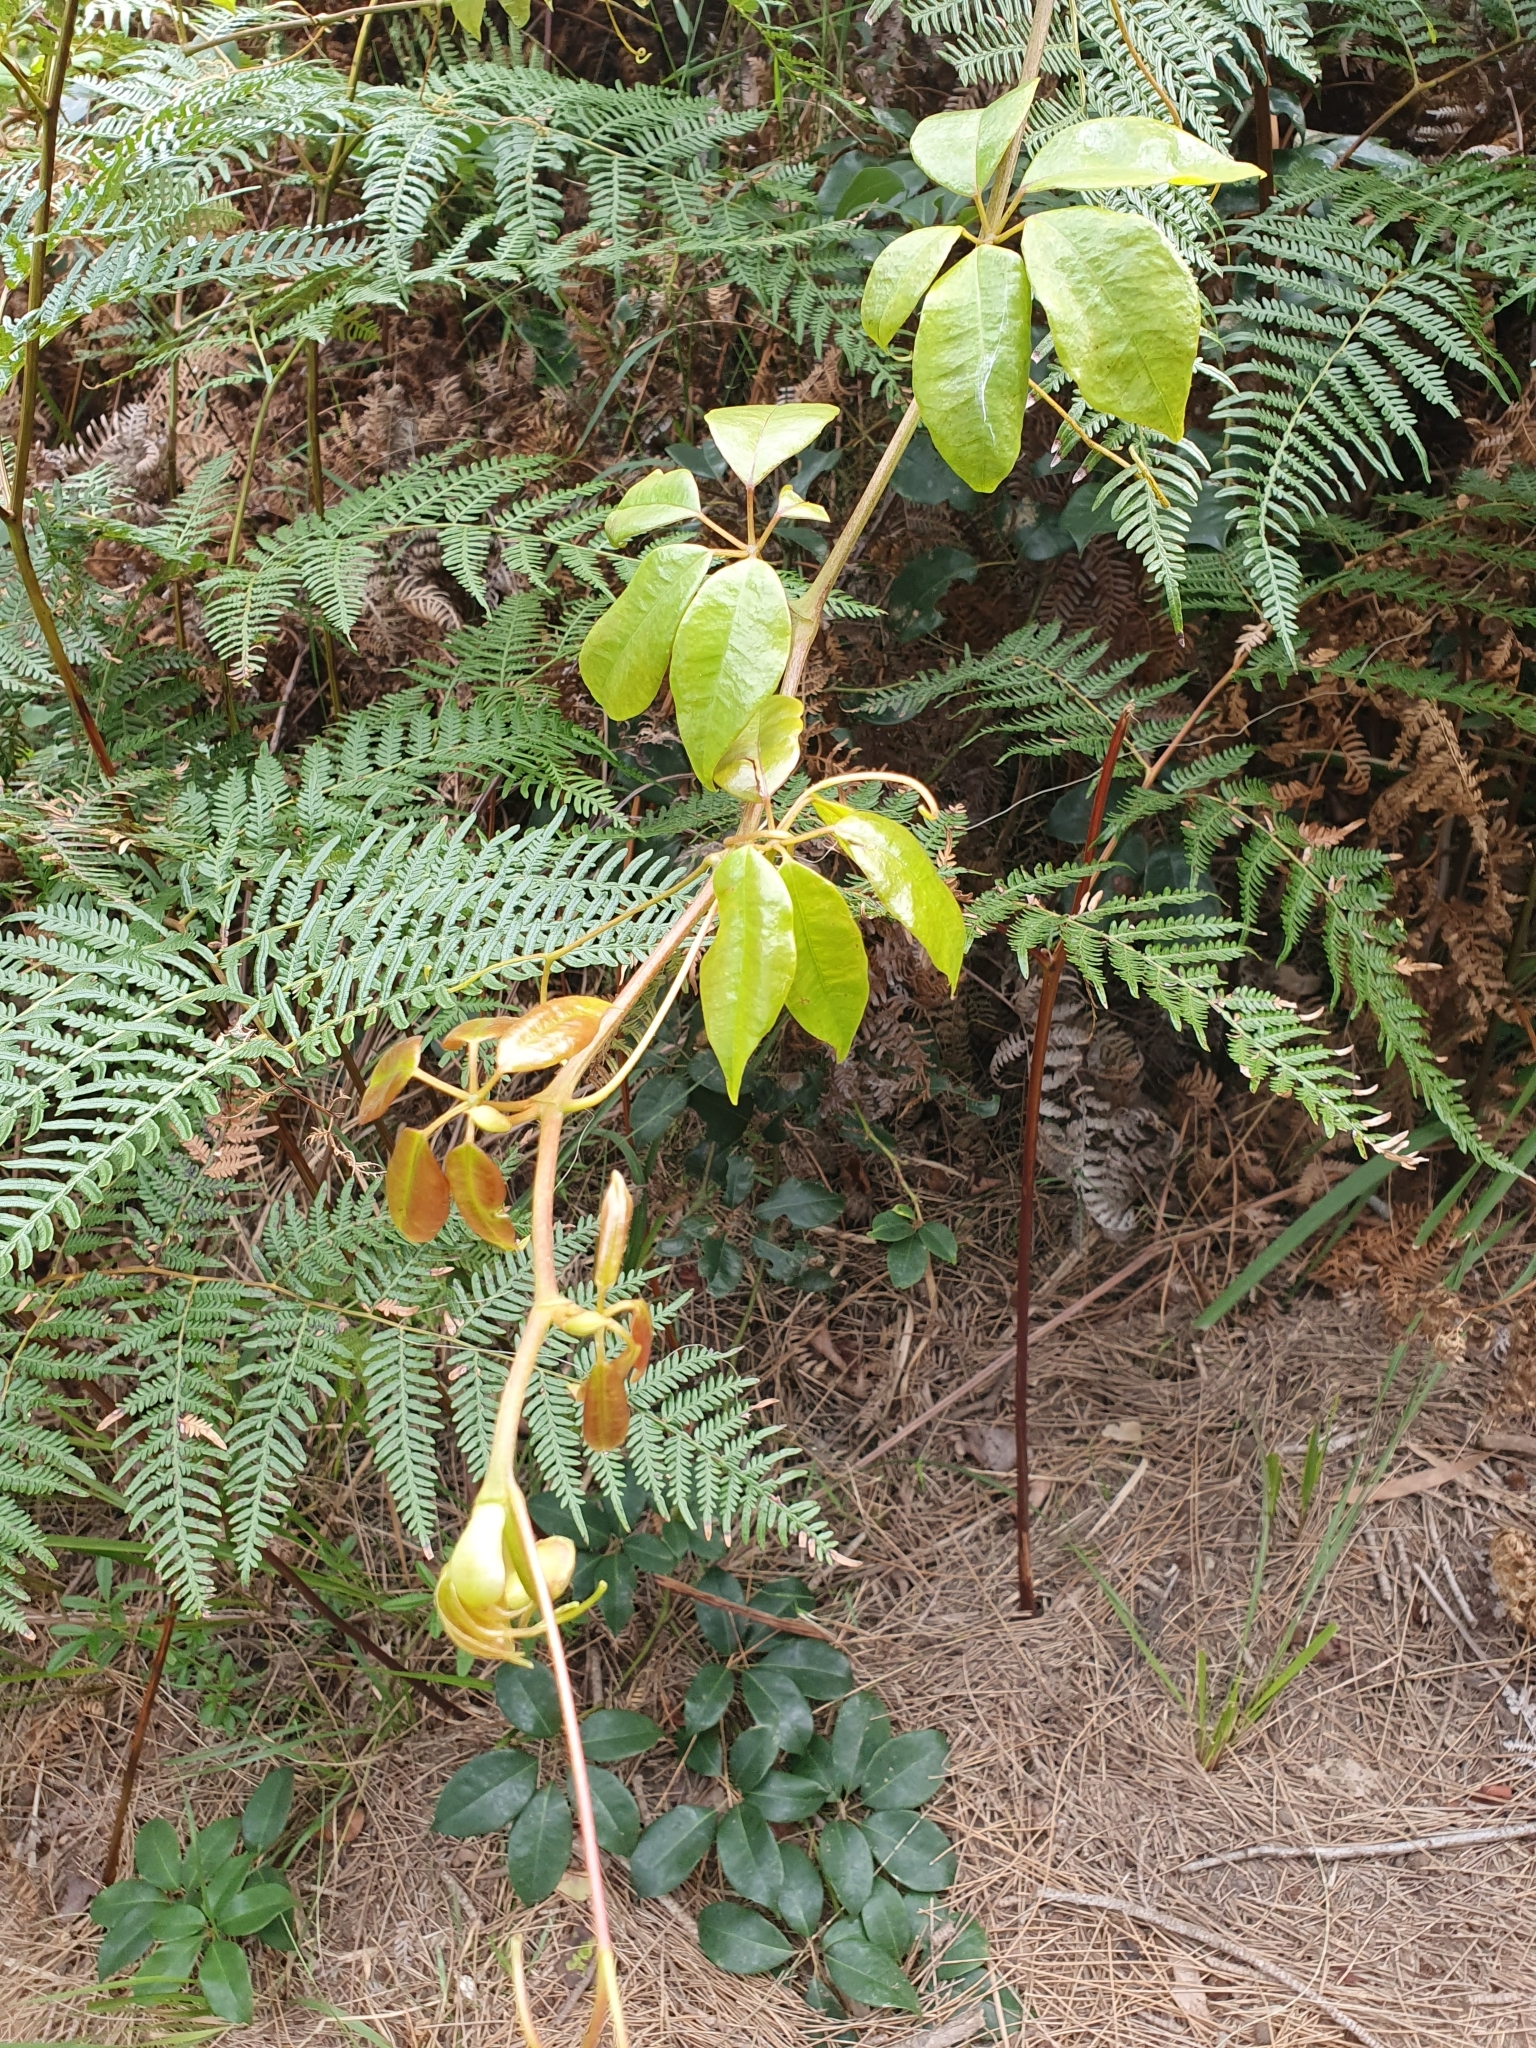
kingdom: Plantae
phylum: Tracheophyta
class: Magnoliopsida
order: Vitales
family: Vitaceae
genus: Nothocissus
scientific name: Nothocissus hypoglauca
